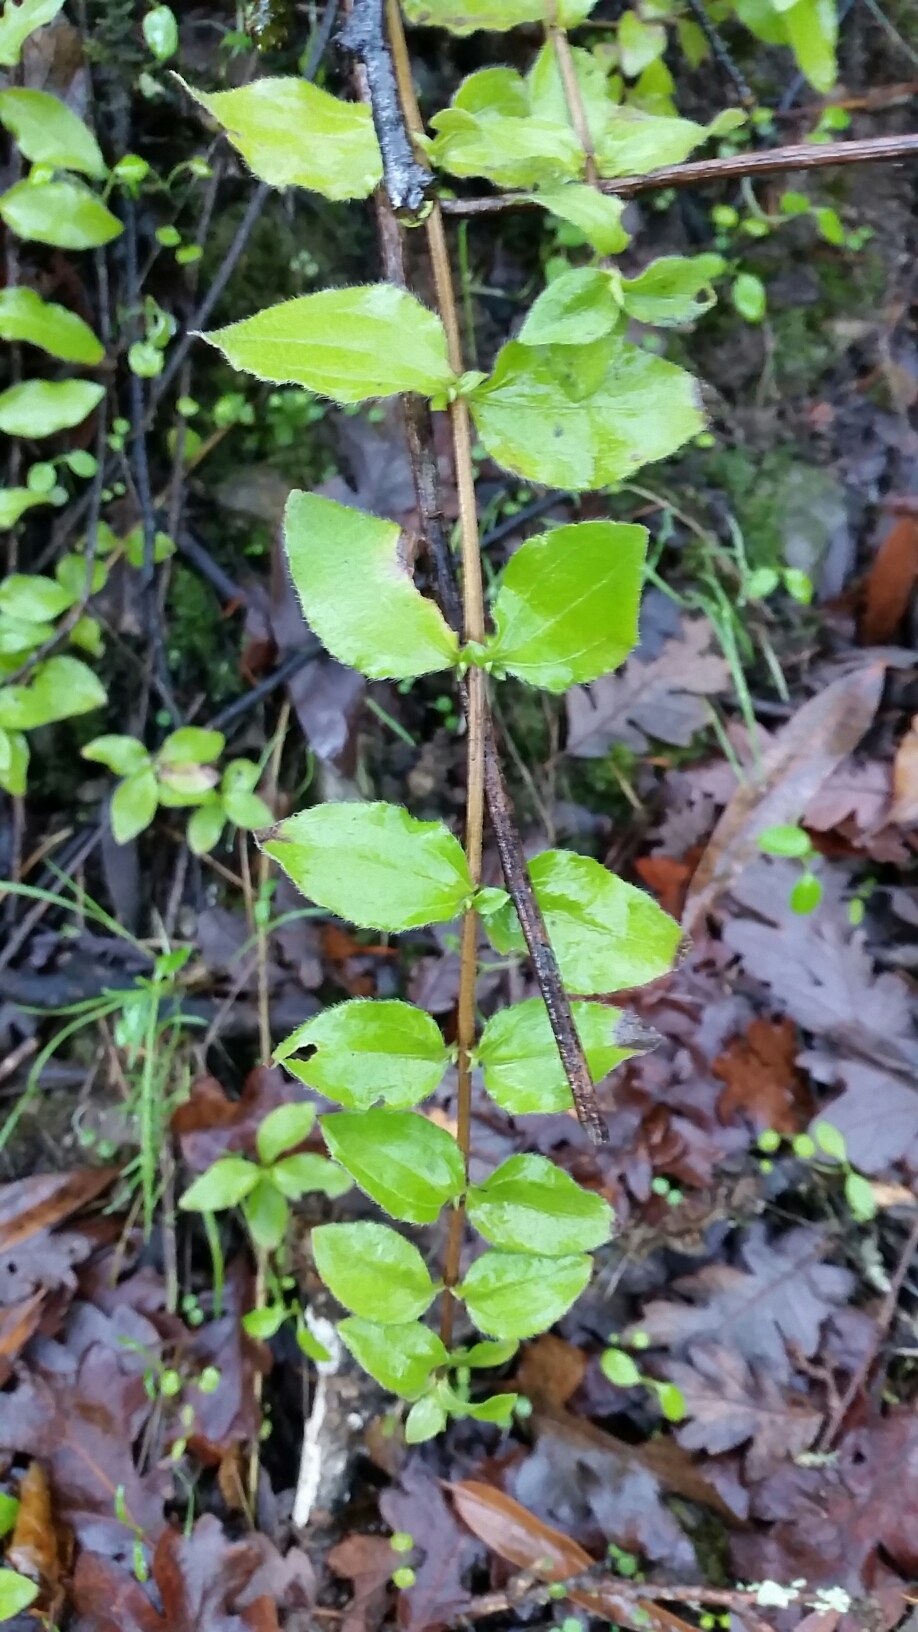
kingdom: Plantae
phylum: Tracheophyta
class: Magnoliopsida
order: Cornales
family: Hydrangeaceae
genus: Whipplea
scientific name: Whipplea modesta
